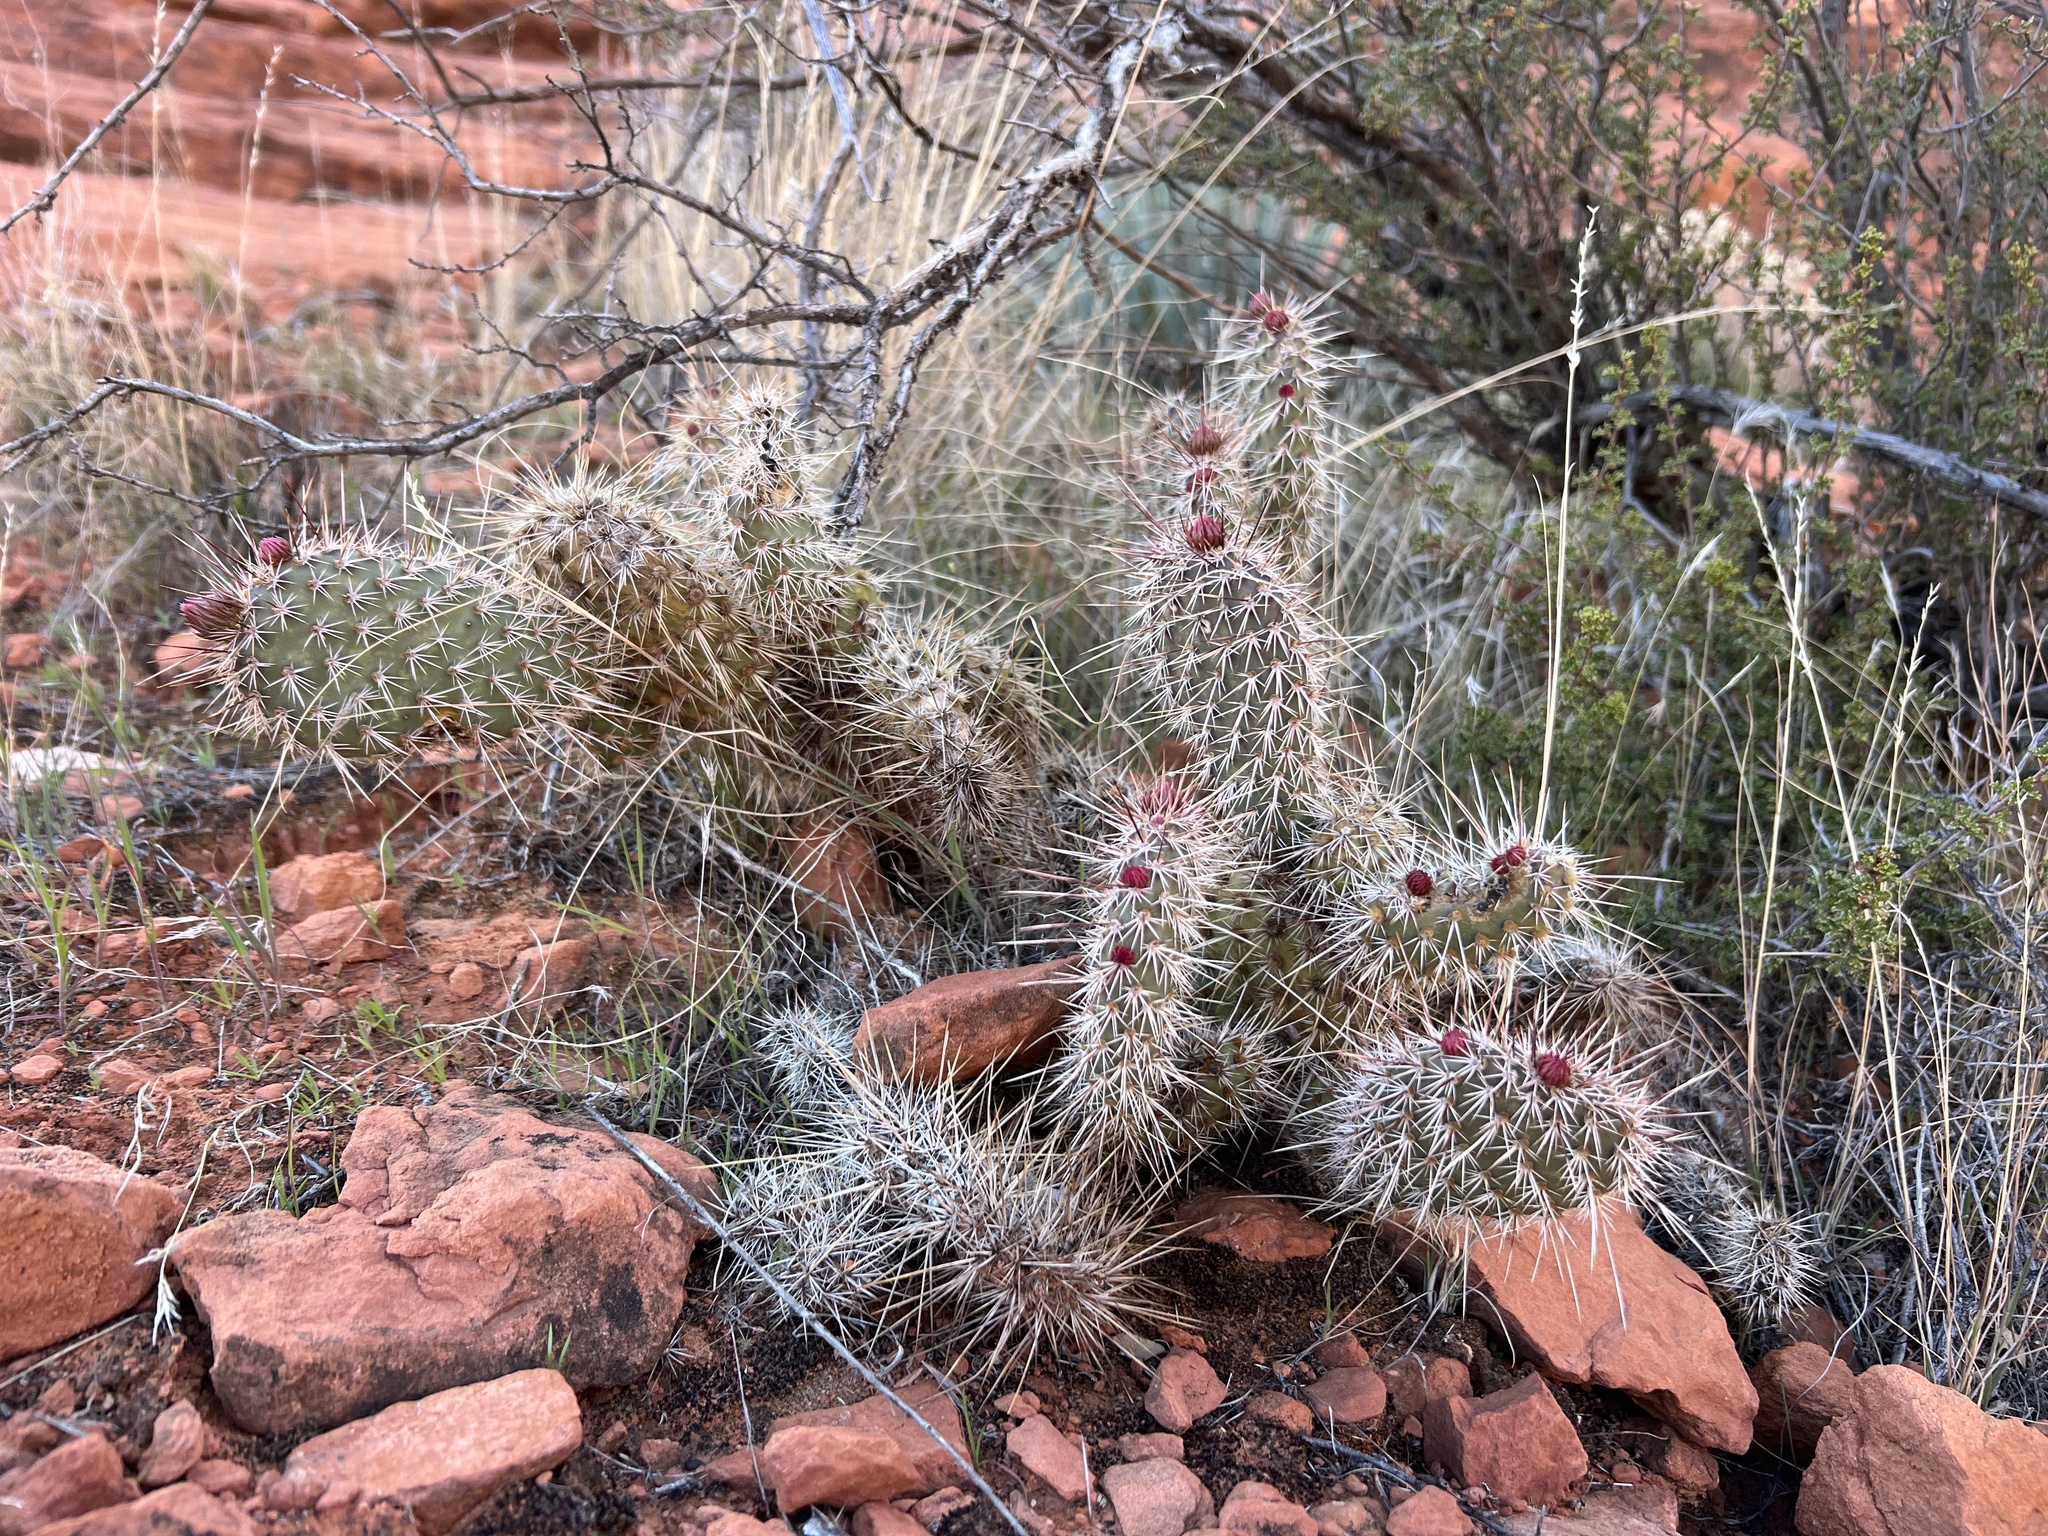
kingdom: Plantae
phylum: Tracheophyta
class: Magnoliopsida
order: Caryophyllales
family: Cactaceae
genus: Opuntia
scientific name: Opuntia polyacantha
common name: Plains prickly-pear
